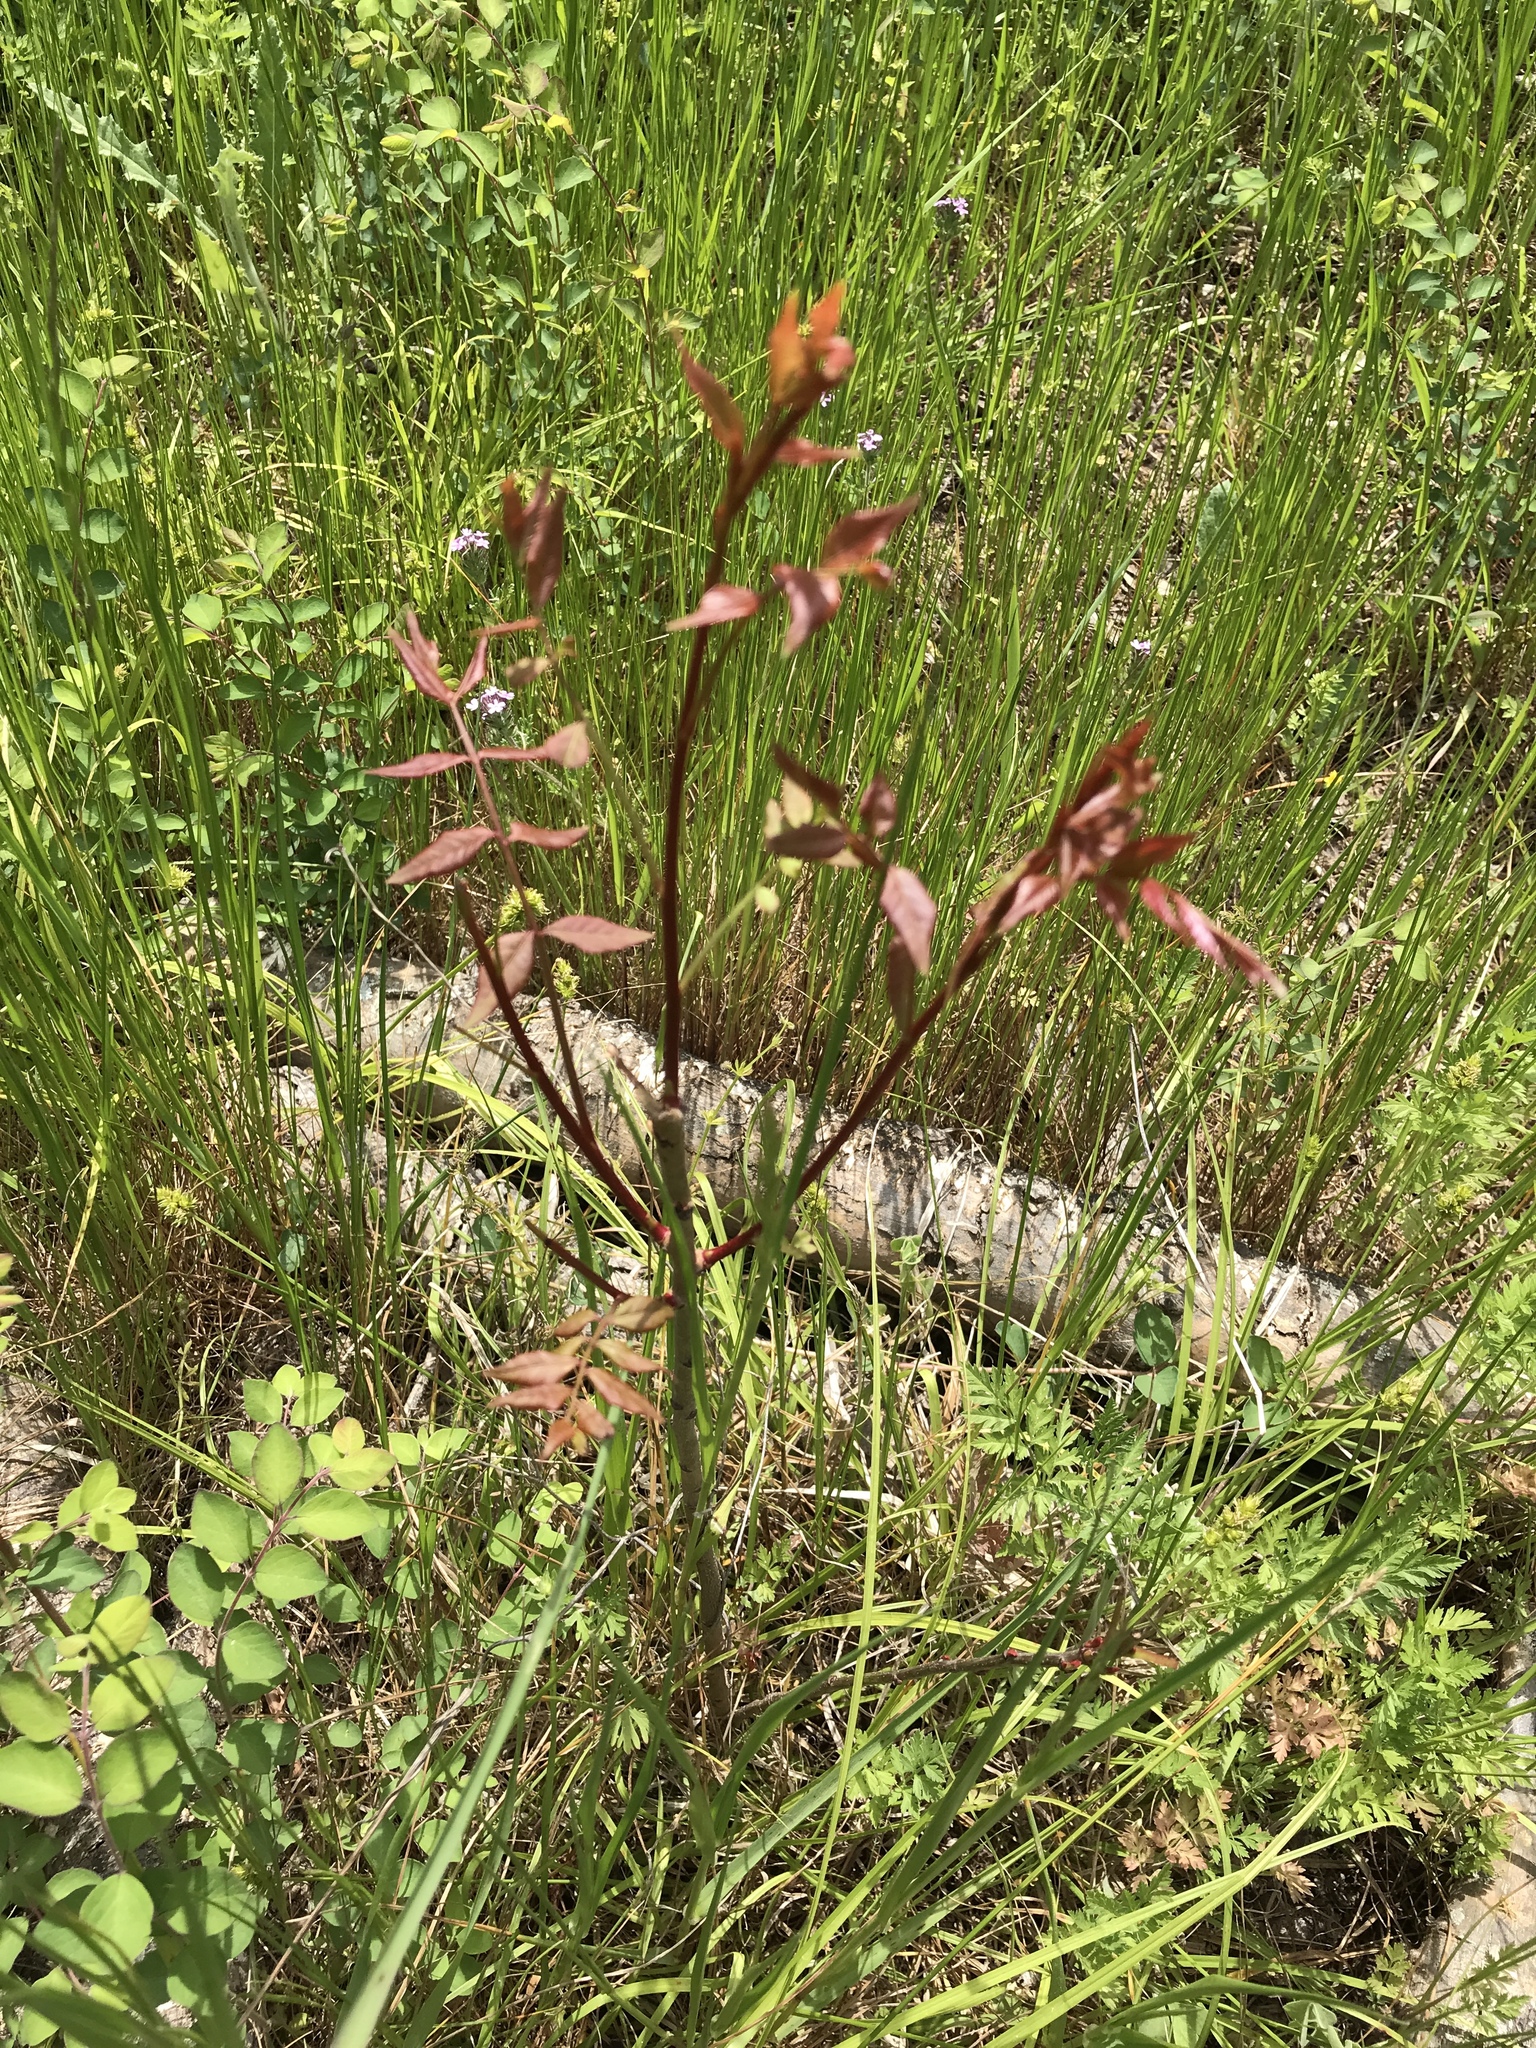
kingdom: Plantae
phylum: Tracheophyta
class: Magnoliopsida
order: Sapindales
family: Anacardiaceae
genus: Pistacia
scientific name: Pistacia chinensis
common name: Chinese pistache
